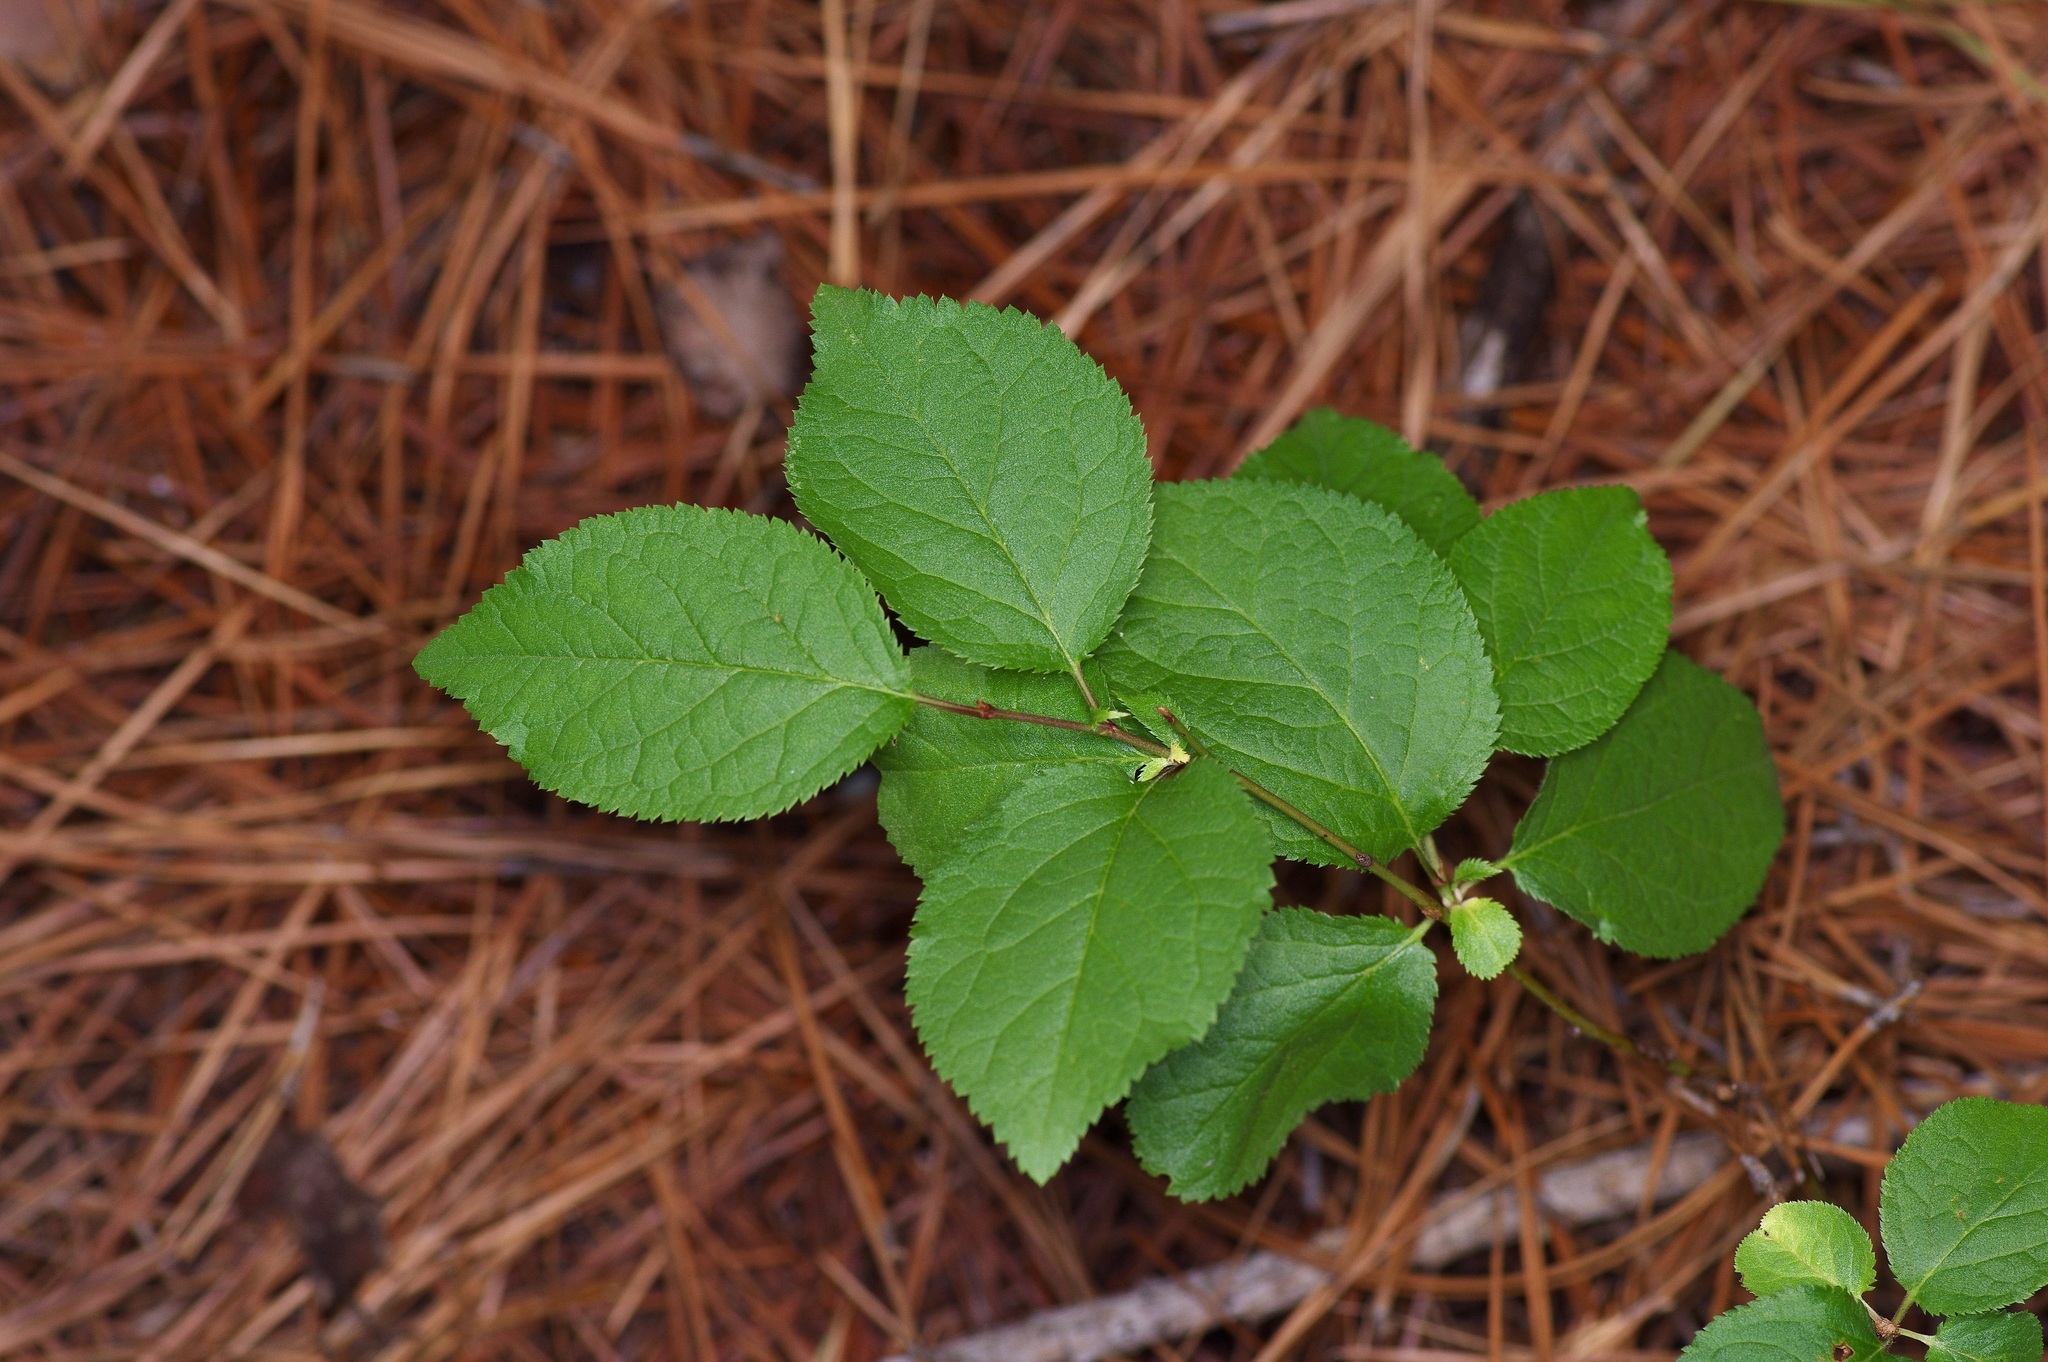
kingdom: Plantae
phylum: Tracheophyta
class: Magnoliopsida
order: Rosales
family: Rosaceae
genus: Prunus
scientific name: Prunus mexicana
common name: Mexican plum
